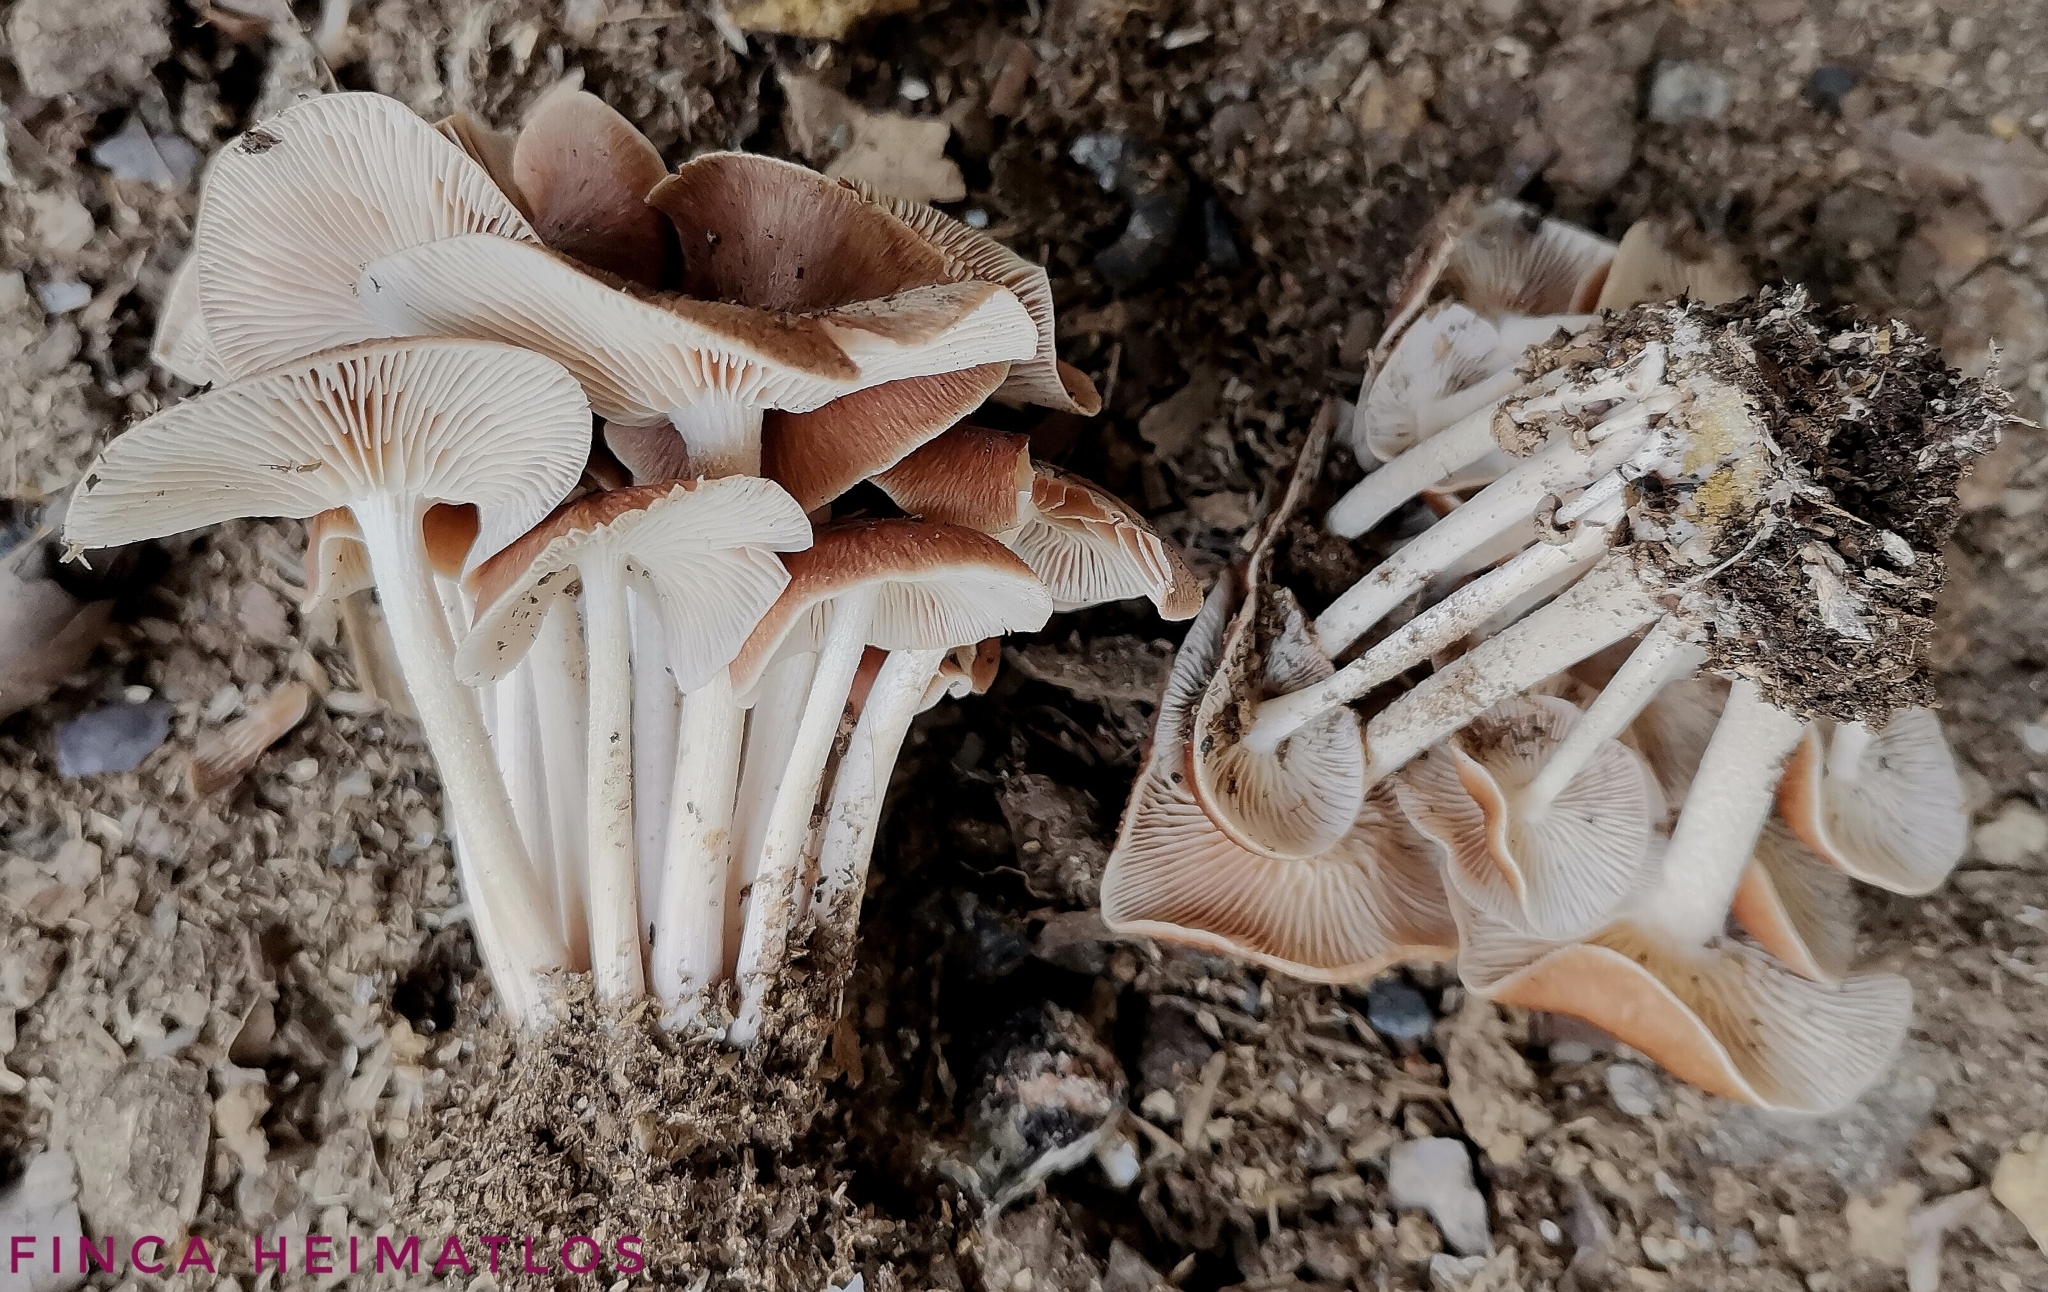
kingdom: Fungi
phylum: Basidiomycota
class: Agaricomycetes
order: Agaricales
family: Omphalotaceae
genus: Collybiopsis
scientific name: Collybiopsis gibbosa
